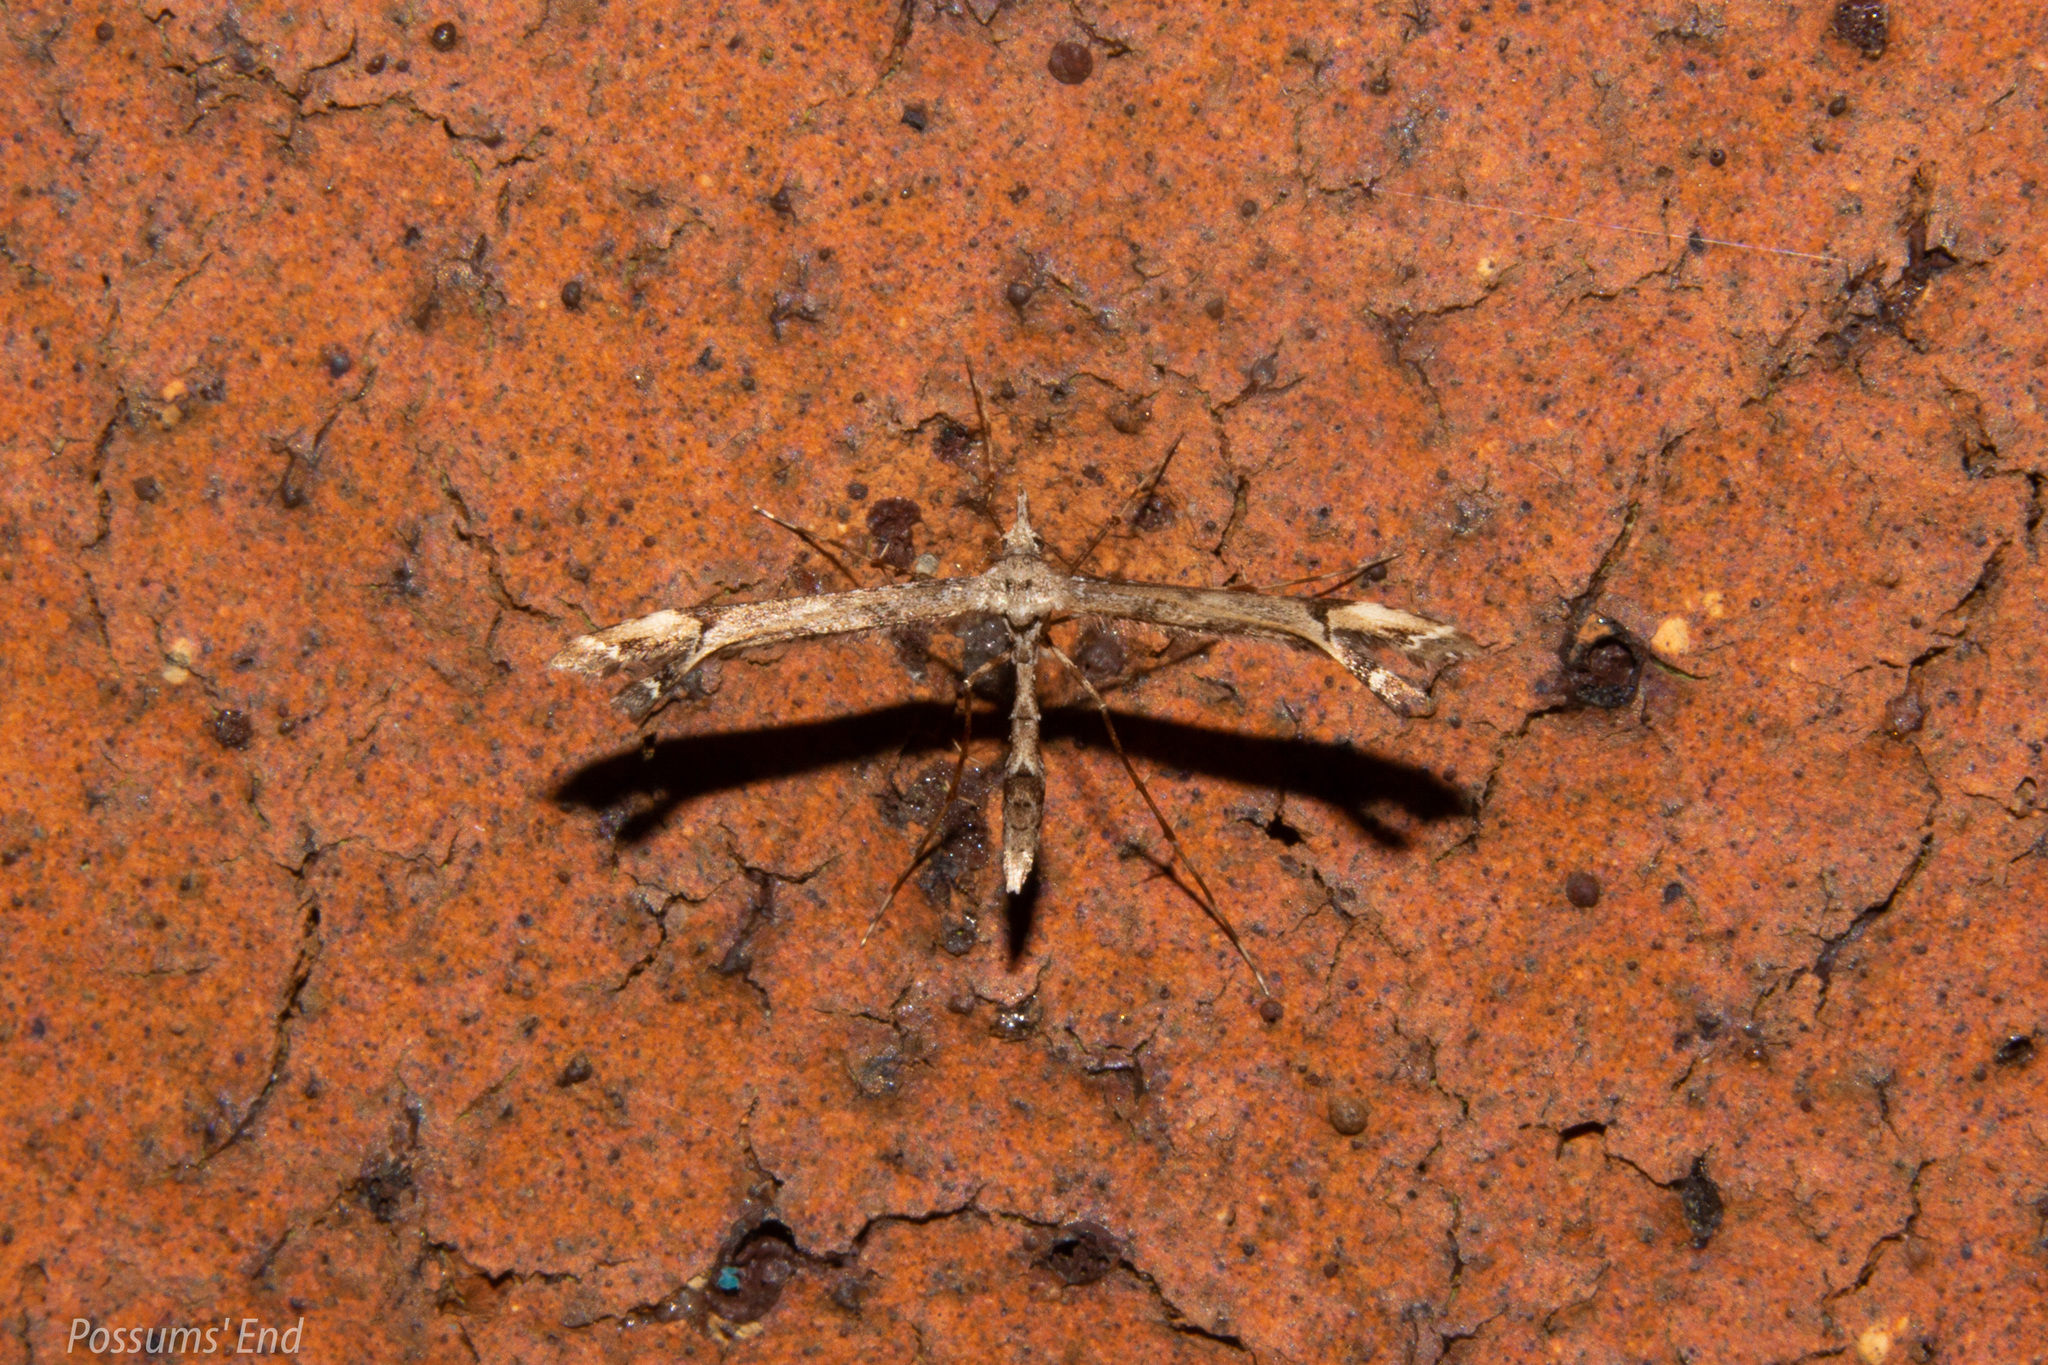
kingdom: Animalia
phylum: Arthropoda
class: Insecta
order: Lepidoptera
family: Pterophoridae
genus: Amblyptilia
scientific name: Amblyptilia falcatalis
